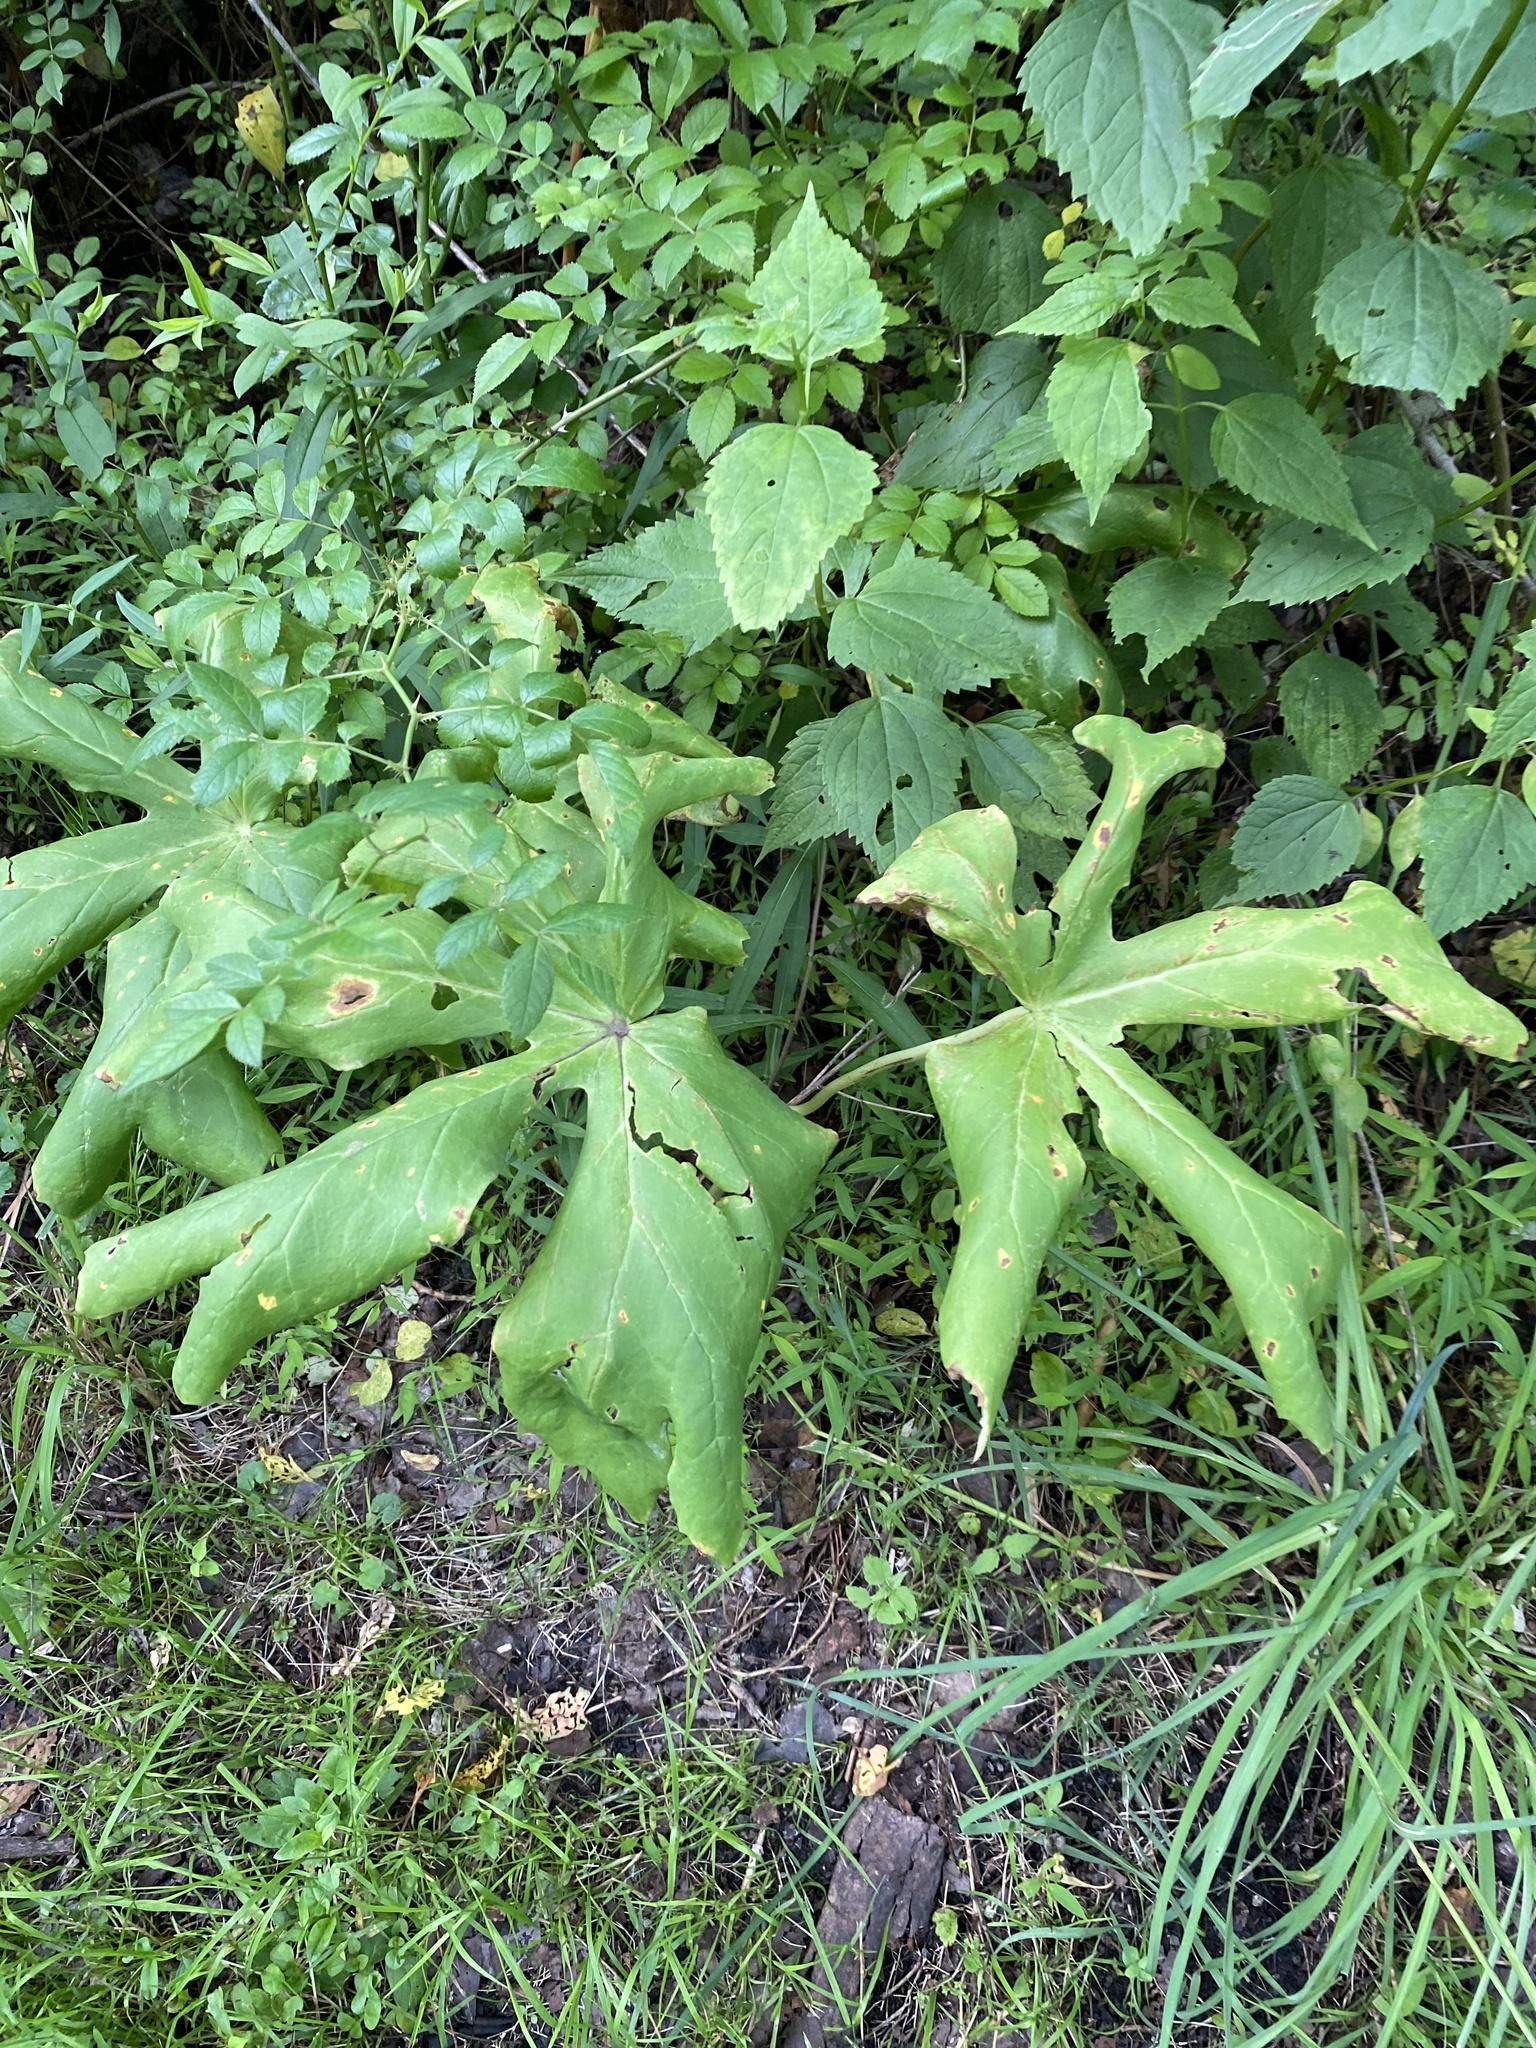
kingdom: Plantae
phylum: Tracheophyta
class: Magnoliopsida
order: Ranunculales
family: Berberidaceae
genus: Podophyllum
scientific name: Podophyllum peltatum
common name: Wild mandrake
